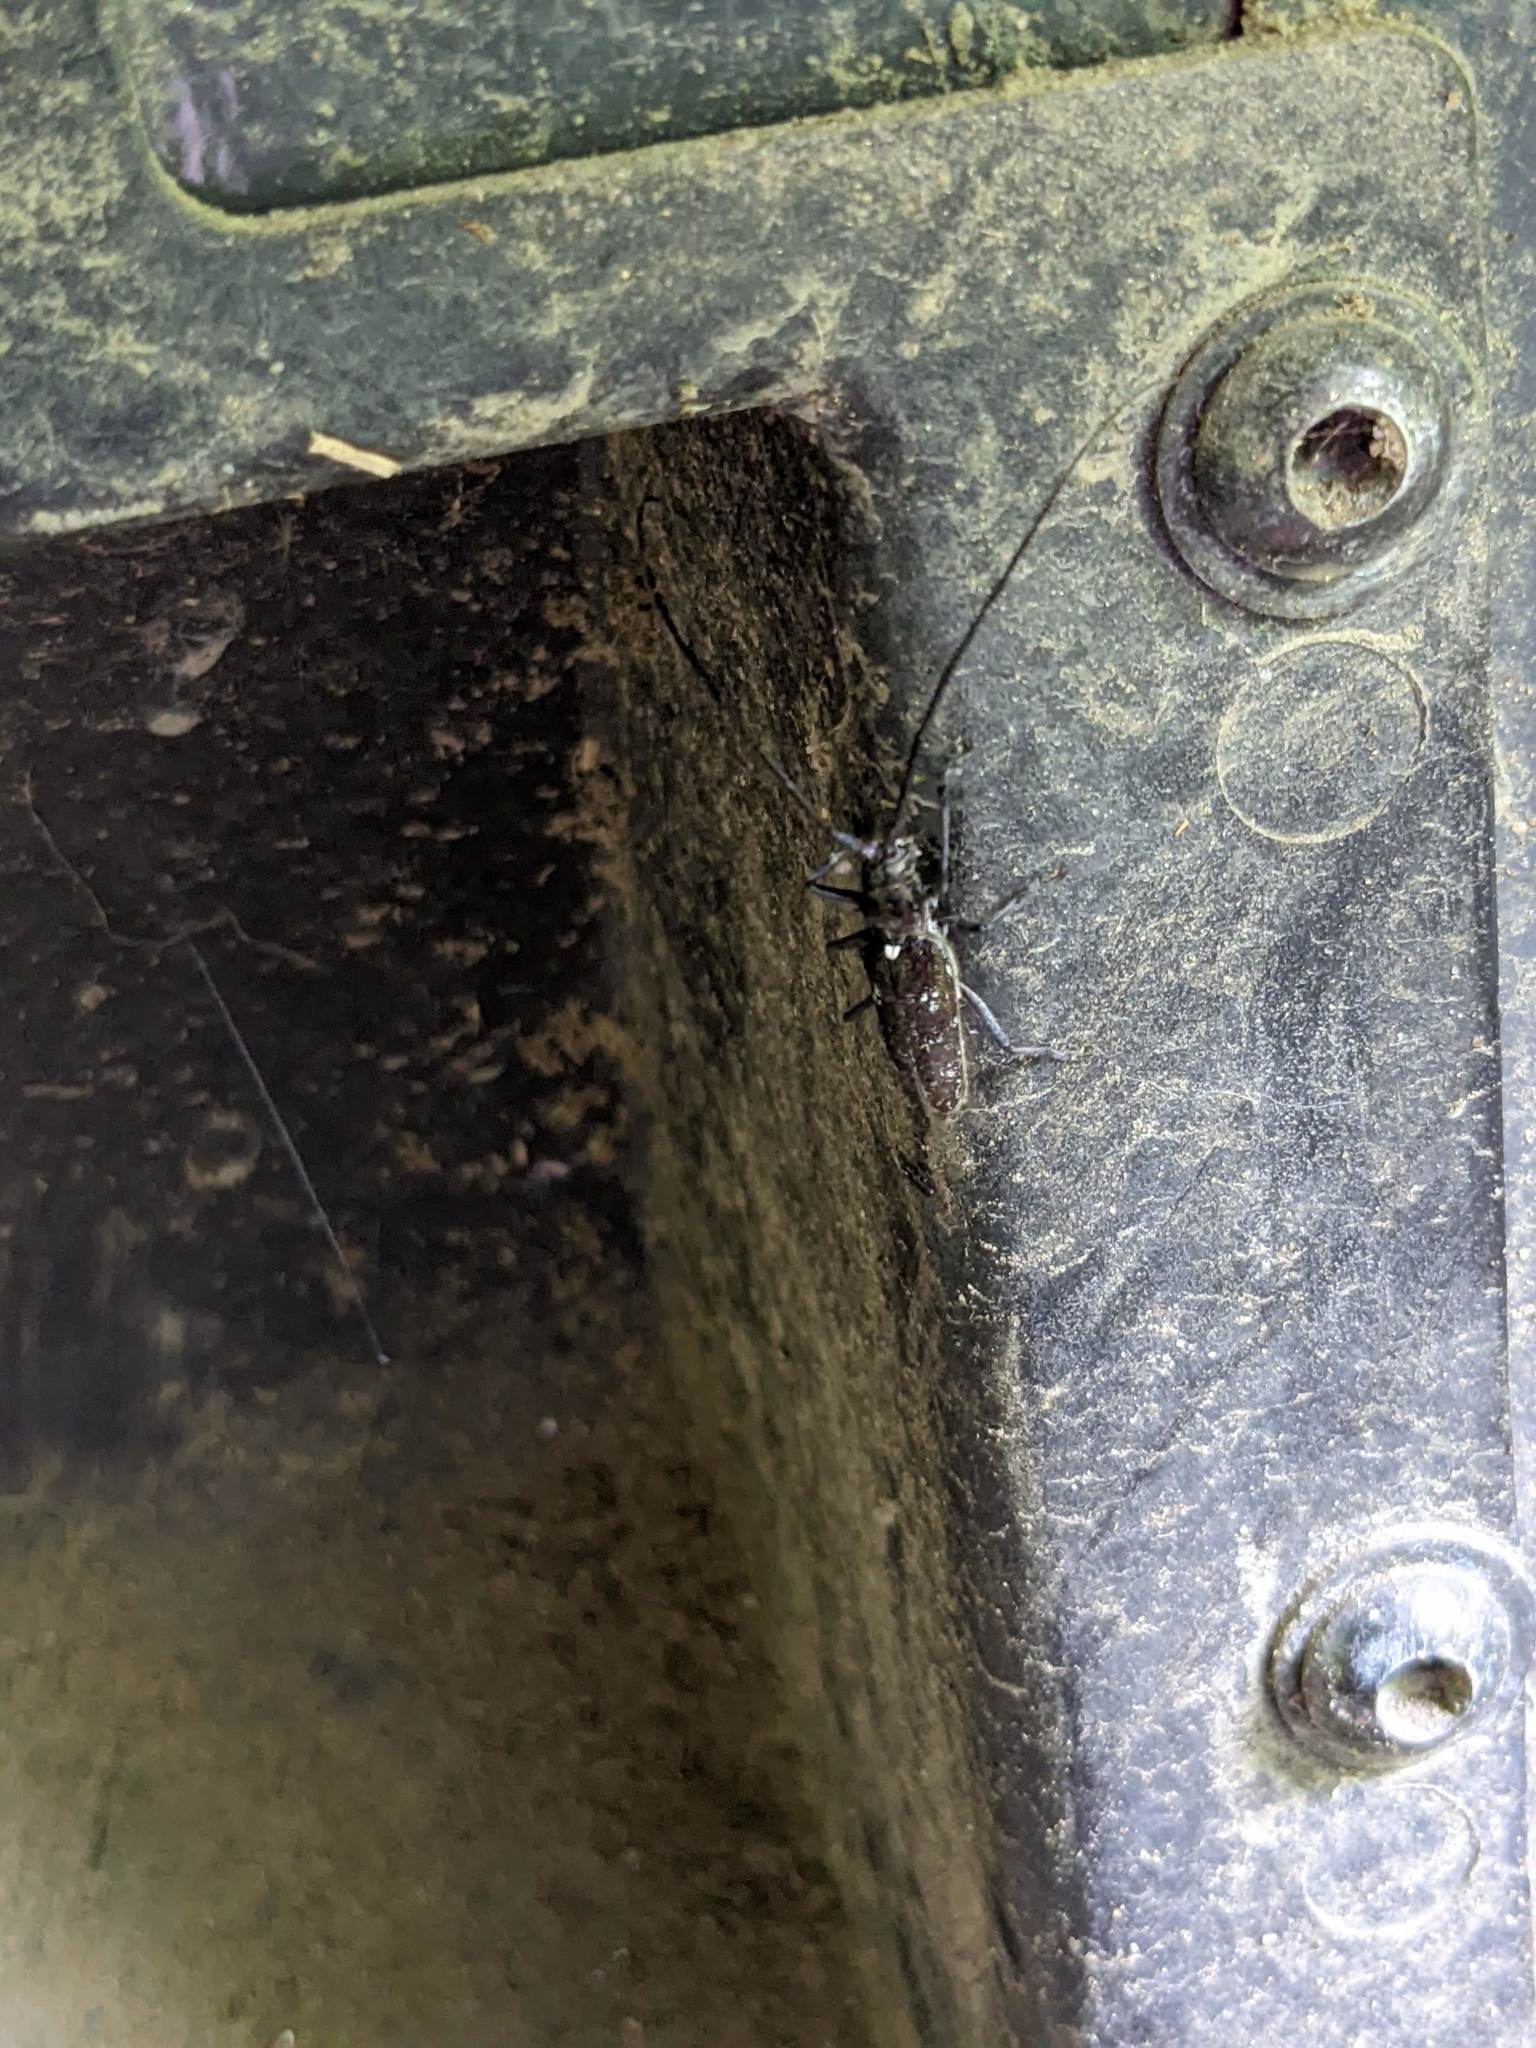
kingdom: Animalia
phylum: Arthropoda
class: Insecta
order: Coleoptera
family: Cerambycidae
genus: Monochamus
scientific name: Monochamus scutellatus
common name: White-spotted sawyer beetle
